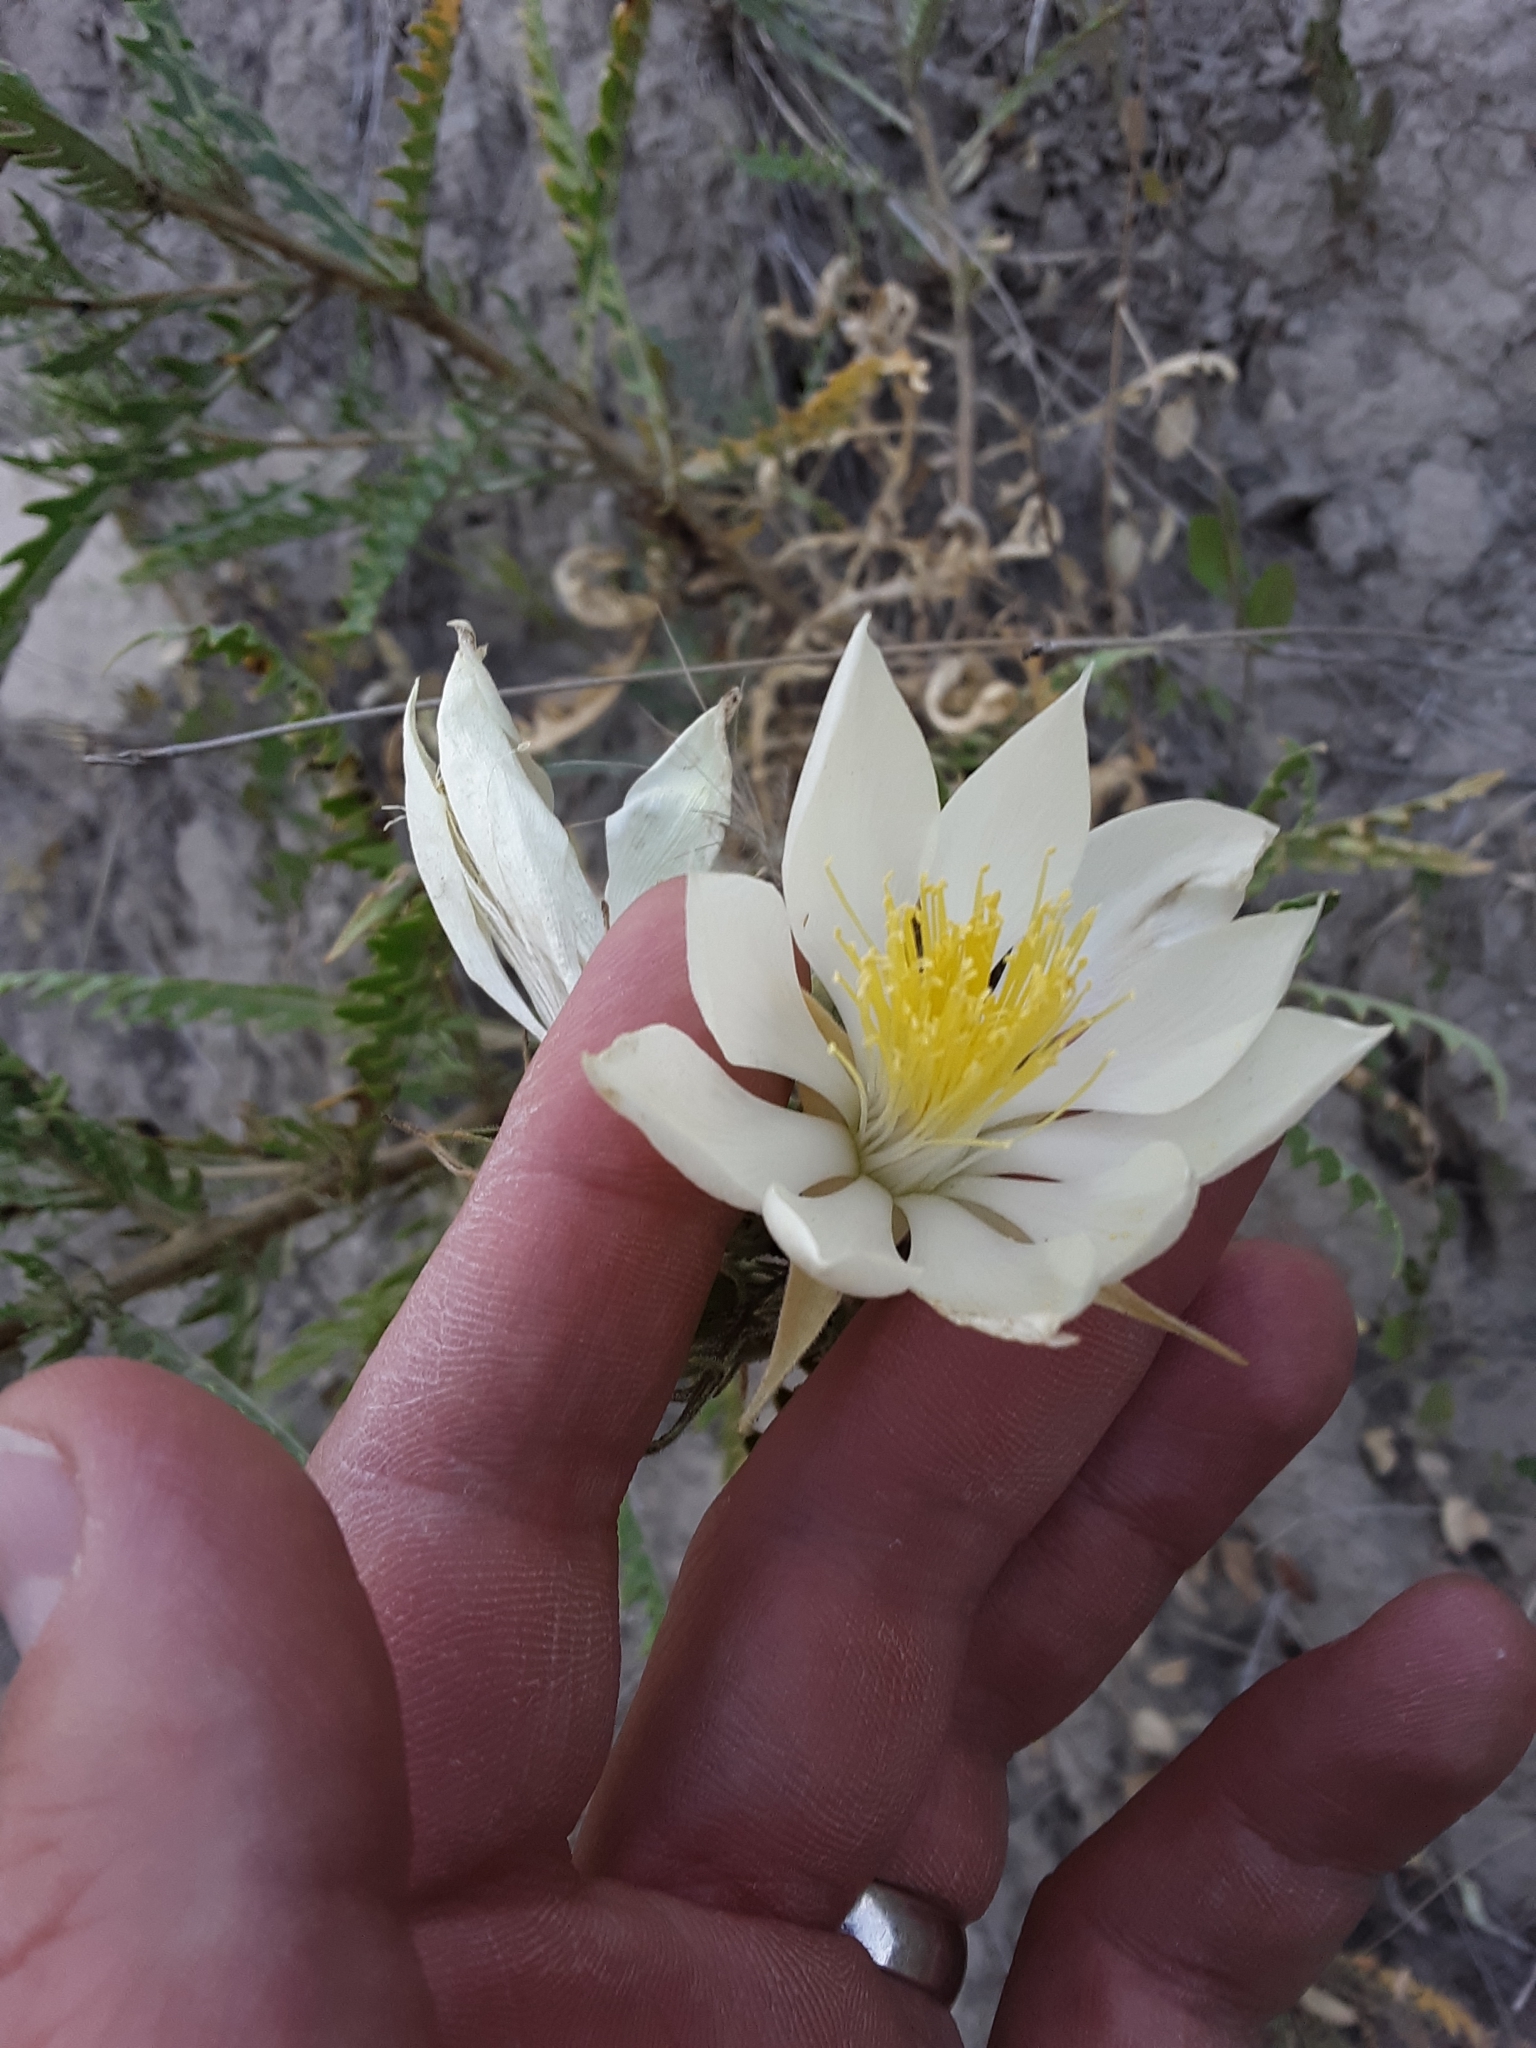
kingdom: Plantae
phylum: Tracheophyta
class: Magnoliopsida
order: Cornales
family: Loasaceae
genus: Mentzelia
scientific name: Mentzelia decapetala
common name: Gumbo-lily
